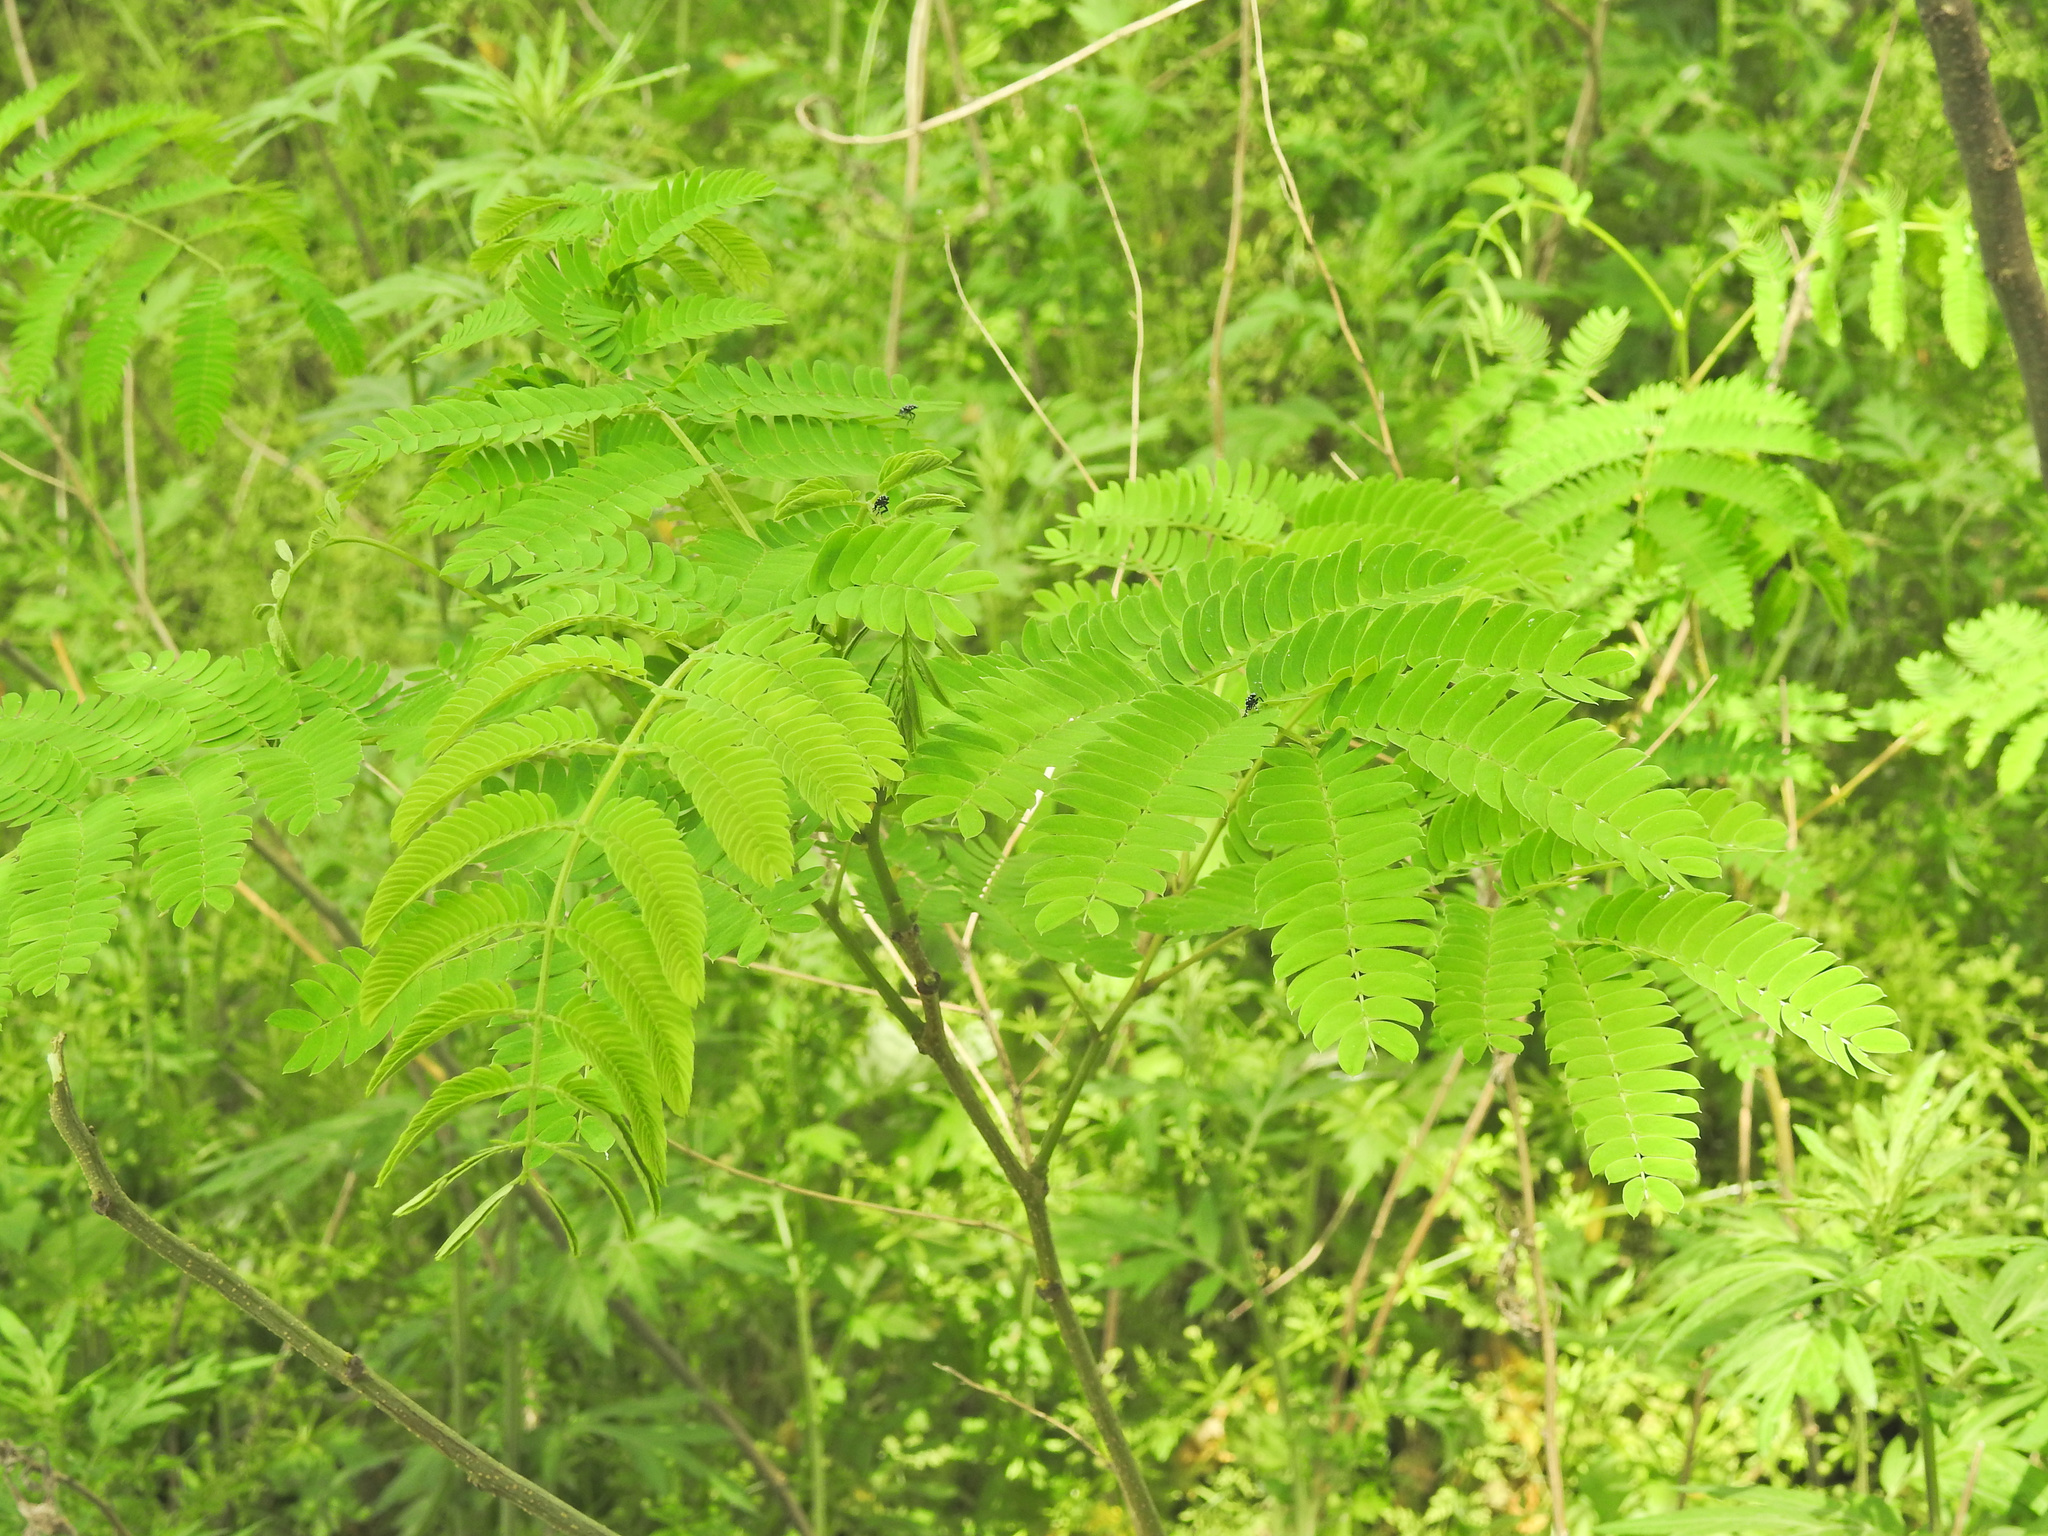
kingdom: Plantae
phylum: Tracheophyta
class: Magnoliopsida
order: Fabales
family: Fabaceae
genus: Albizia
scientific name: Albizia julibrissin
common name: Silktree
